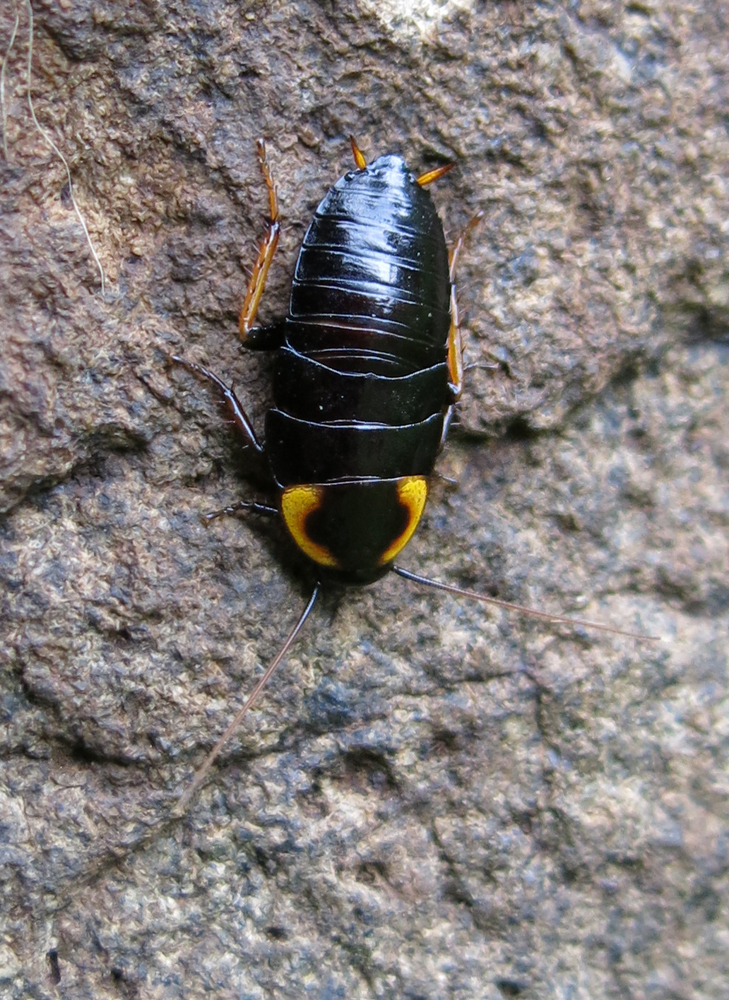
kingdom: Animalia
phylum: Arthropoda
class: Insecta
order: Blattodea
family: Blattidae
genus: Pseudoderopeltis
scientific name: Pseudoderopeltis albilatera
